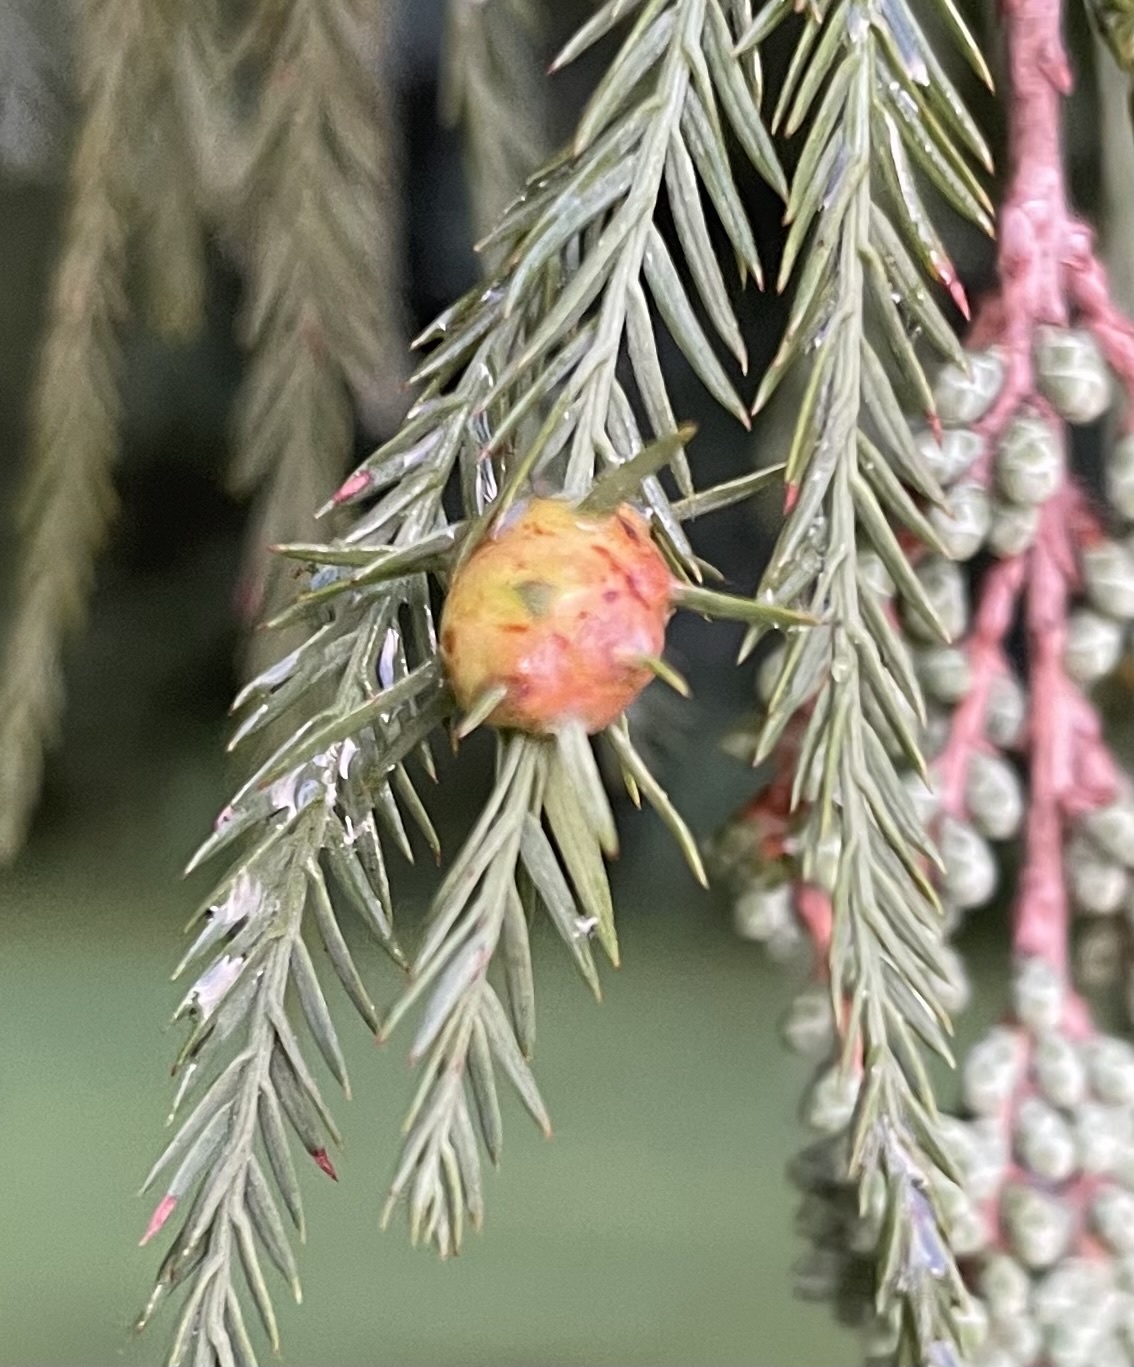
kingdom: Animalia
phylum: Arthropoda
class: Insecta
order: Diptera
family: Cecidomyiidae
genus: Taxodiomyia
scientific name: Taxodiomyia cupressiananassa
